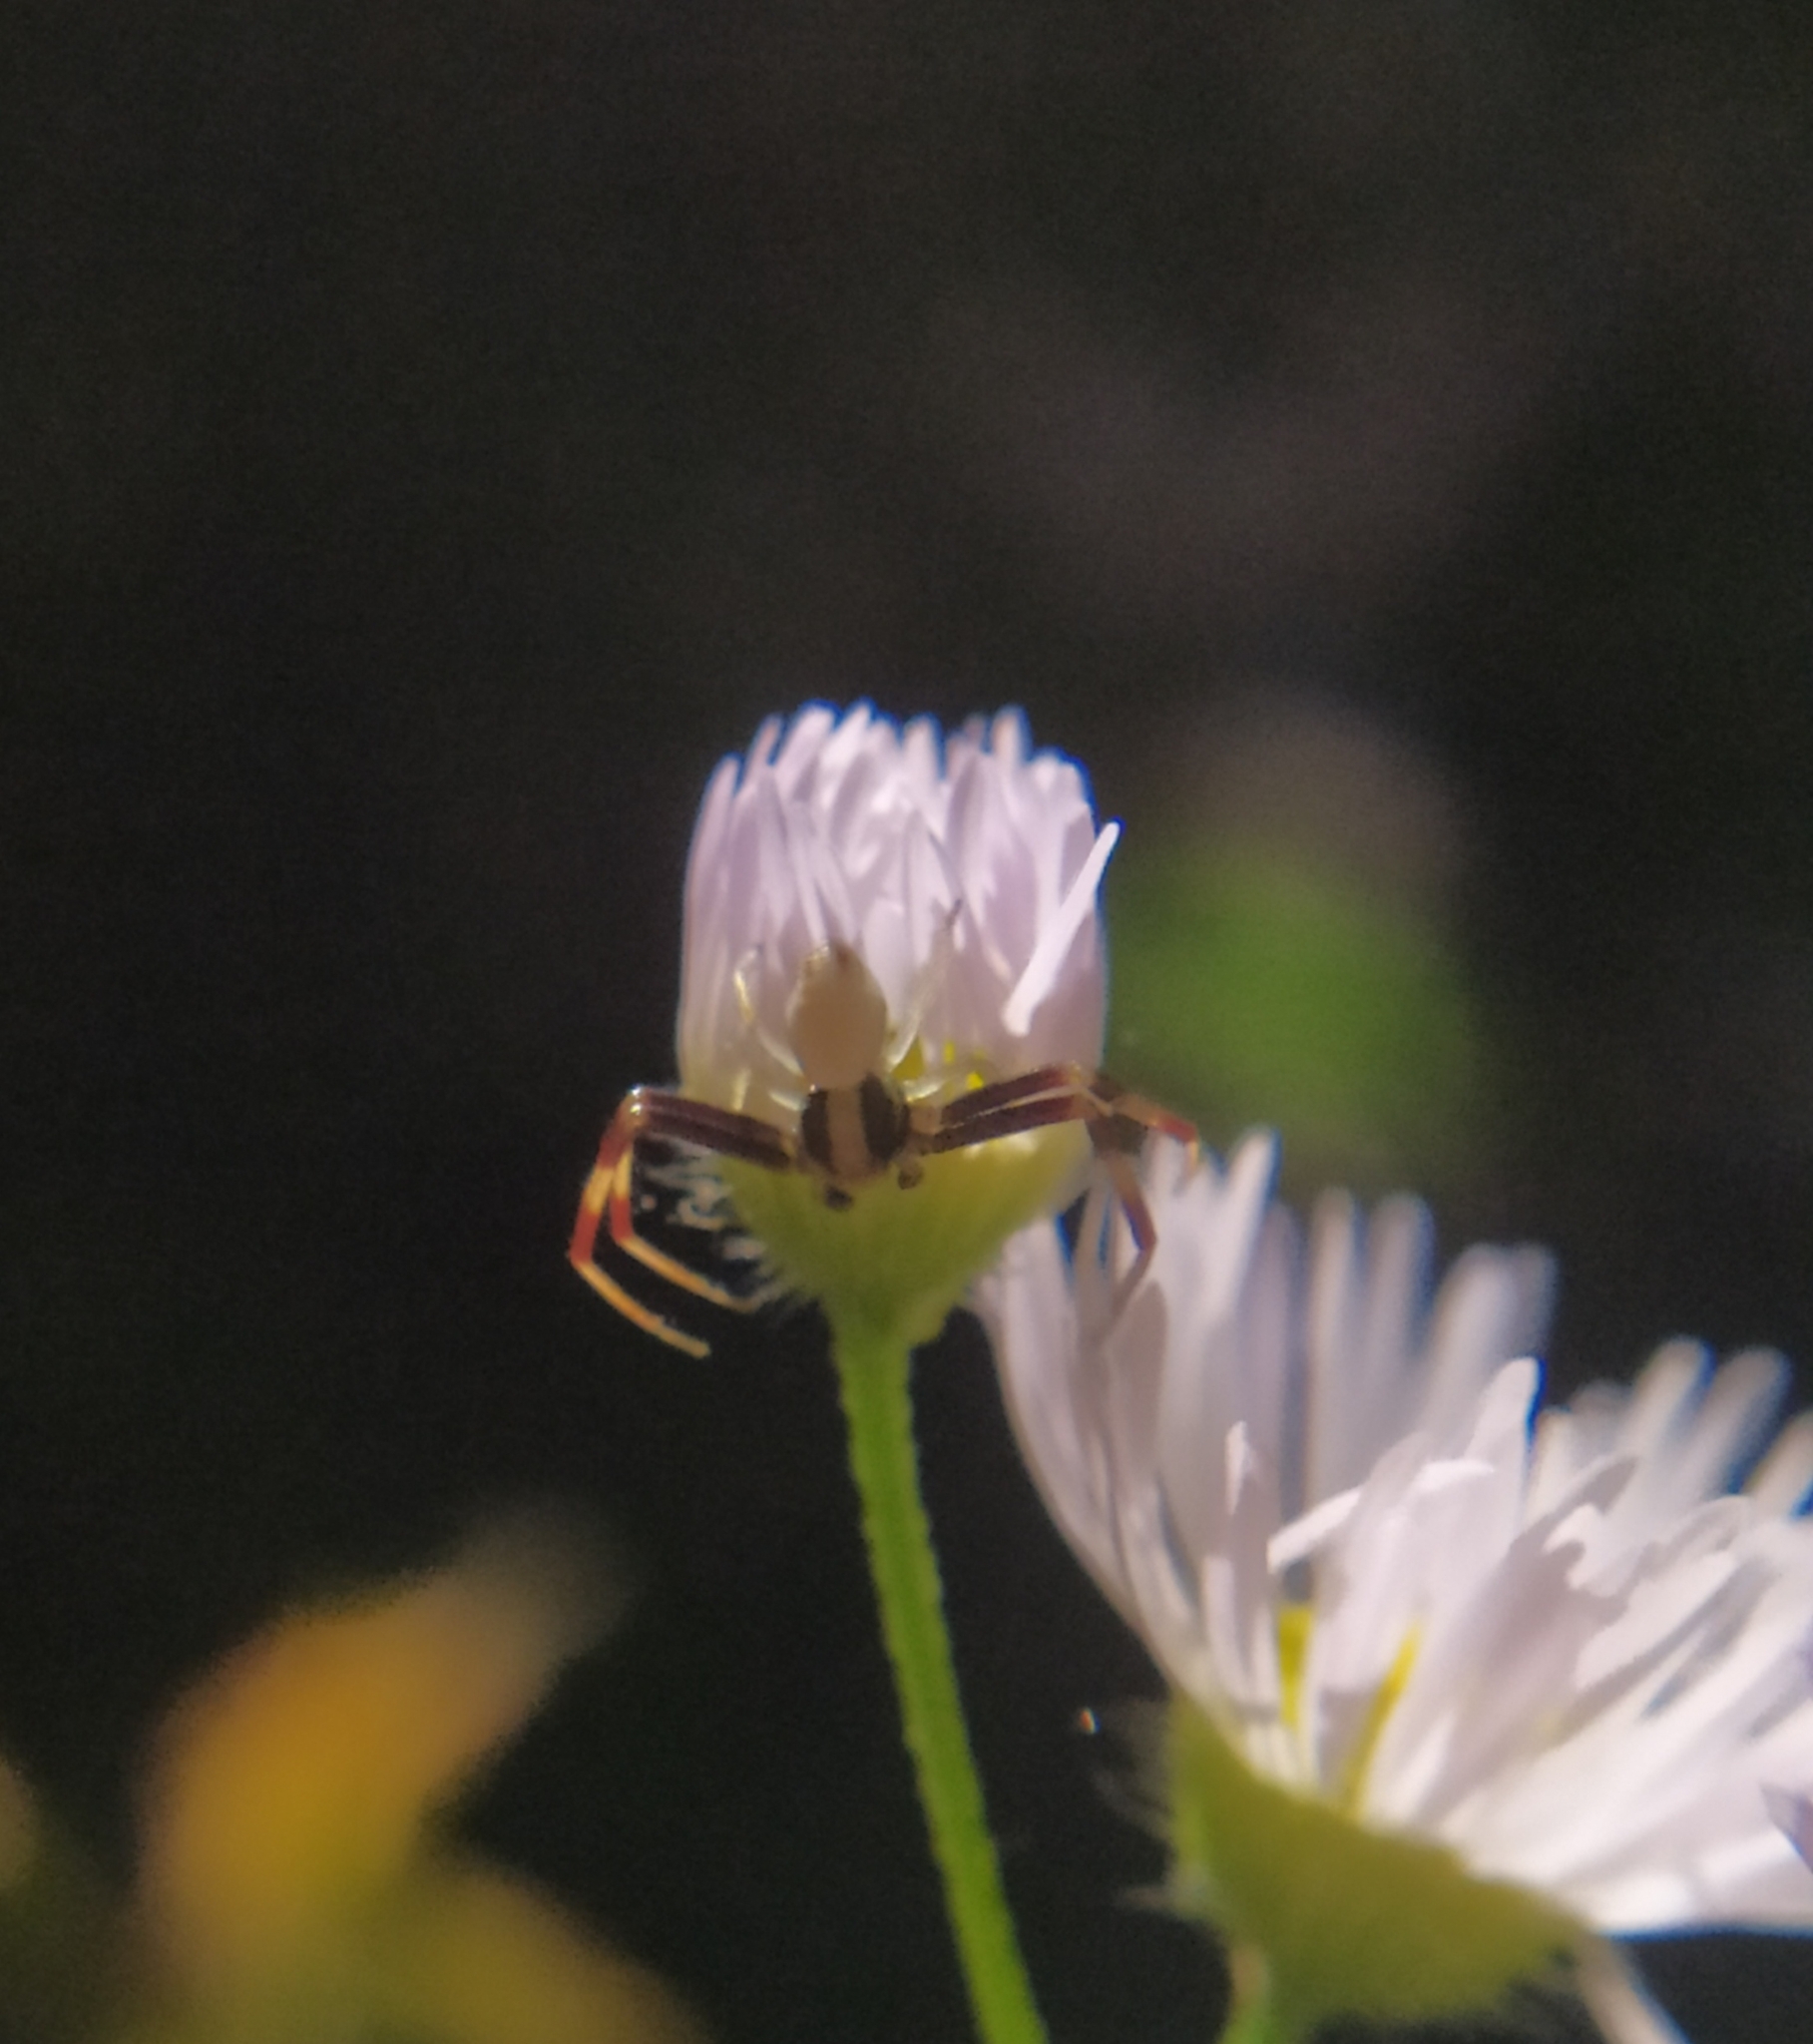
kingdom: Animalia
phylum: Arthropoda
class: Arachnida
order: Araneae
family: Thomisidae
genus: Misumena
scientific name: Misumena vatia
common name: Goldenrod crab spider
